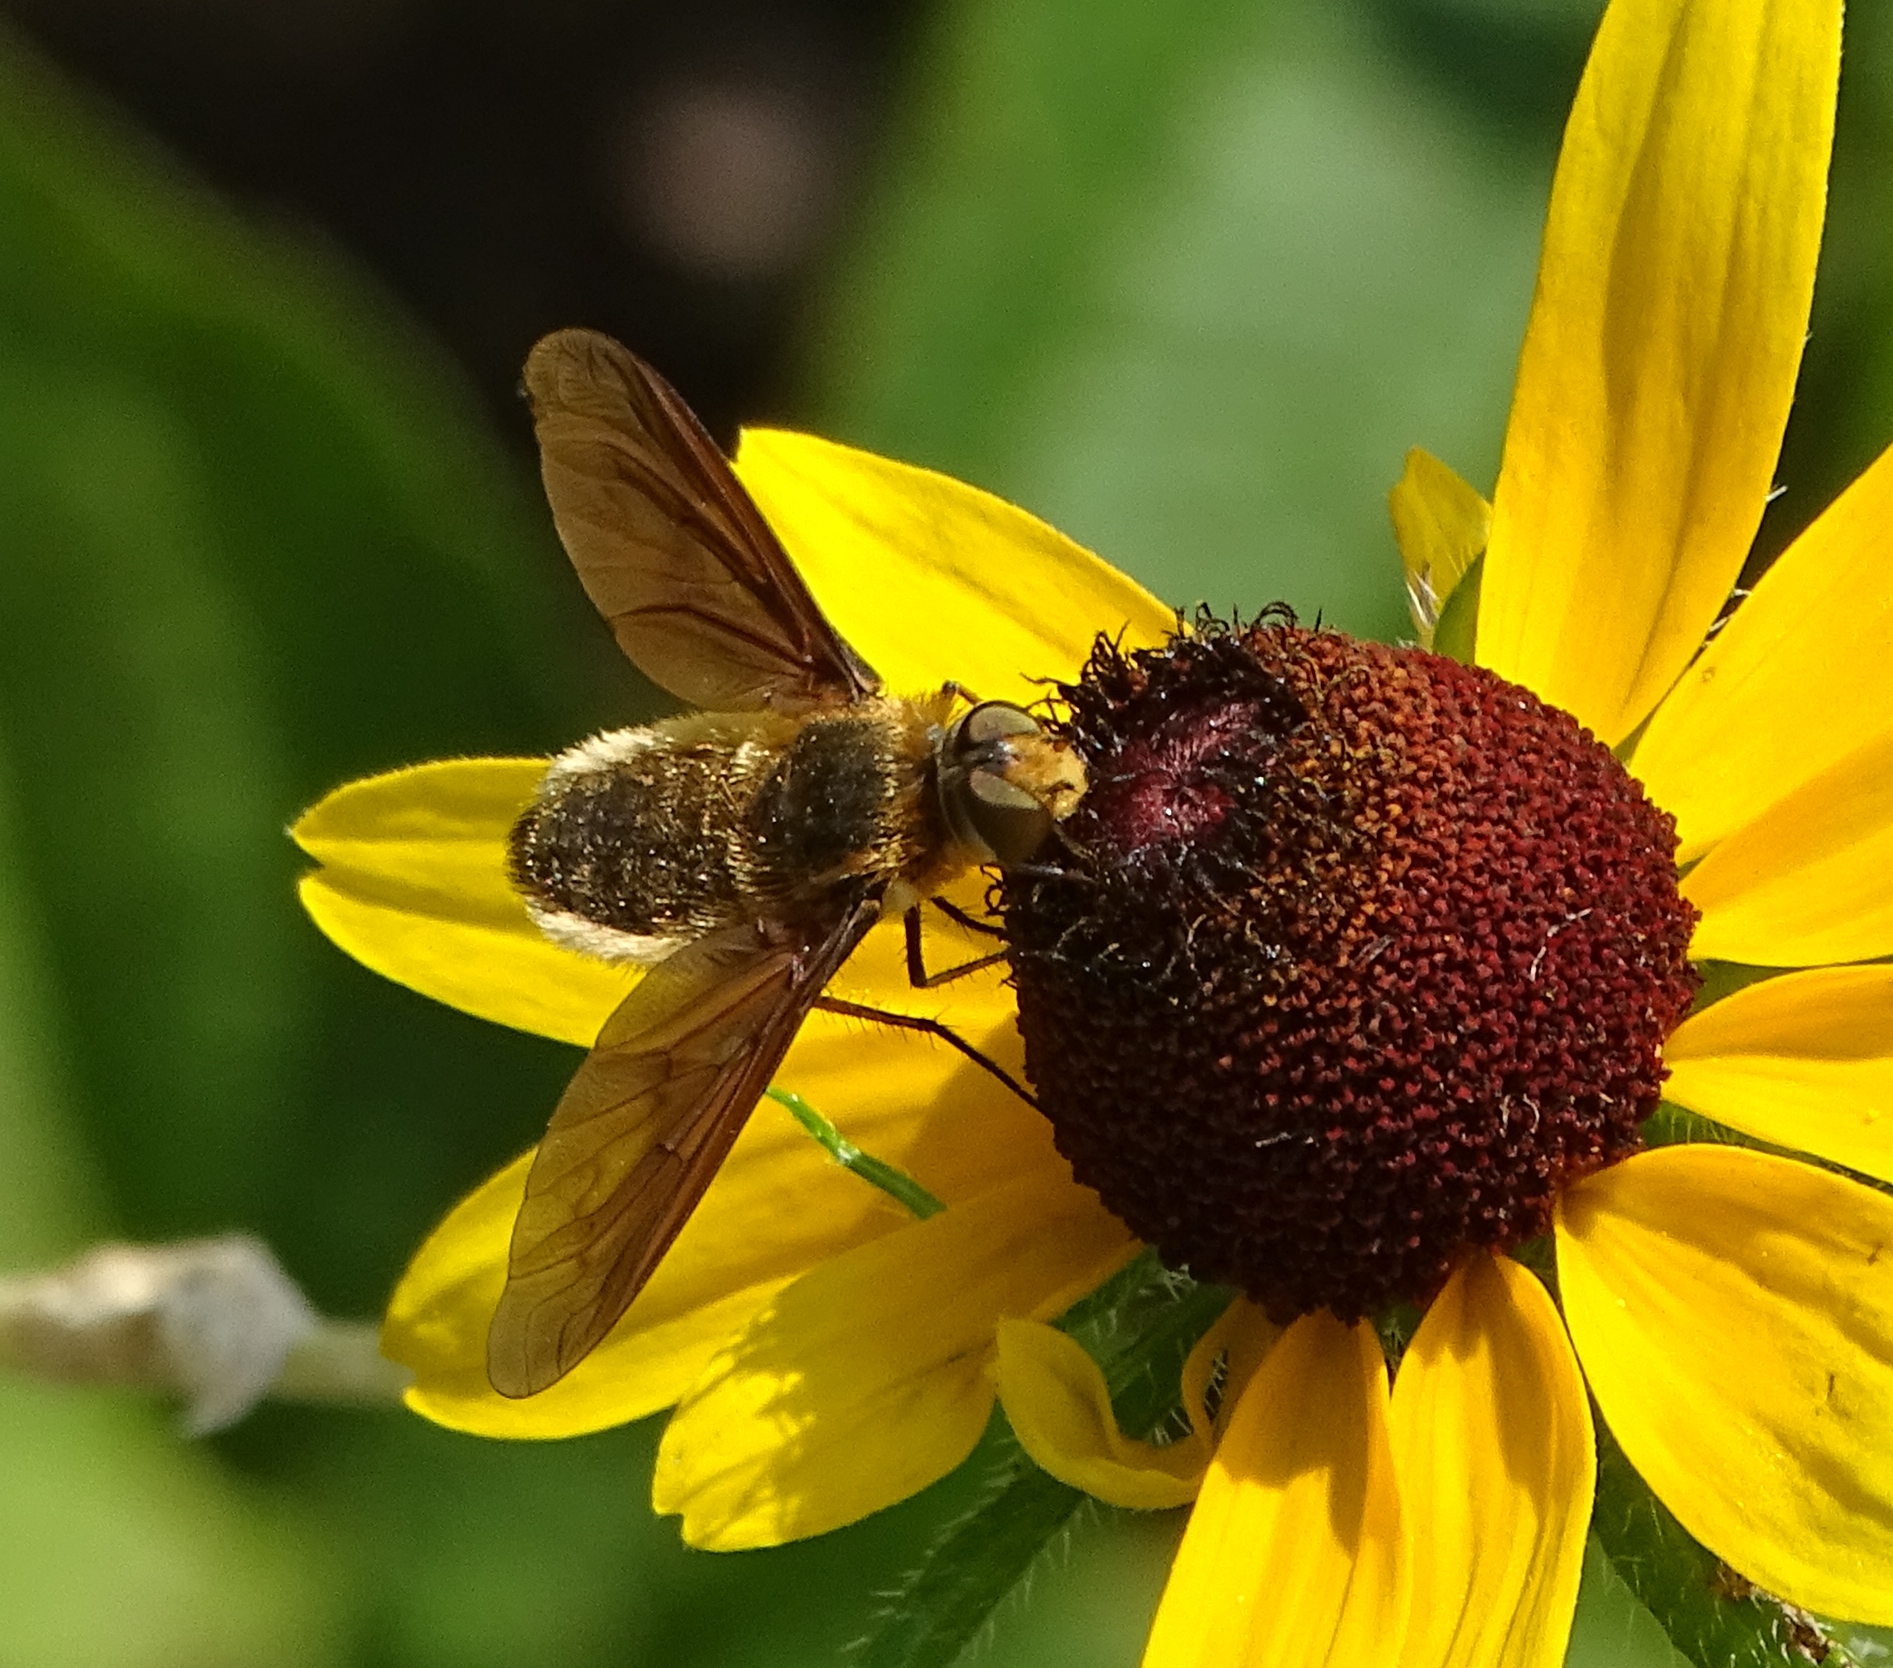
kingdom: Animalia
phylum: Arthropoda
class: Insecta
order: Diptera
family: Bombyliidae
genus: Poecilanthrax
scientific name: Poecilanthrax tegminipennis
